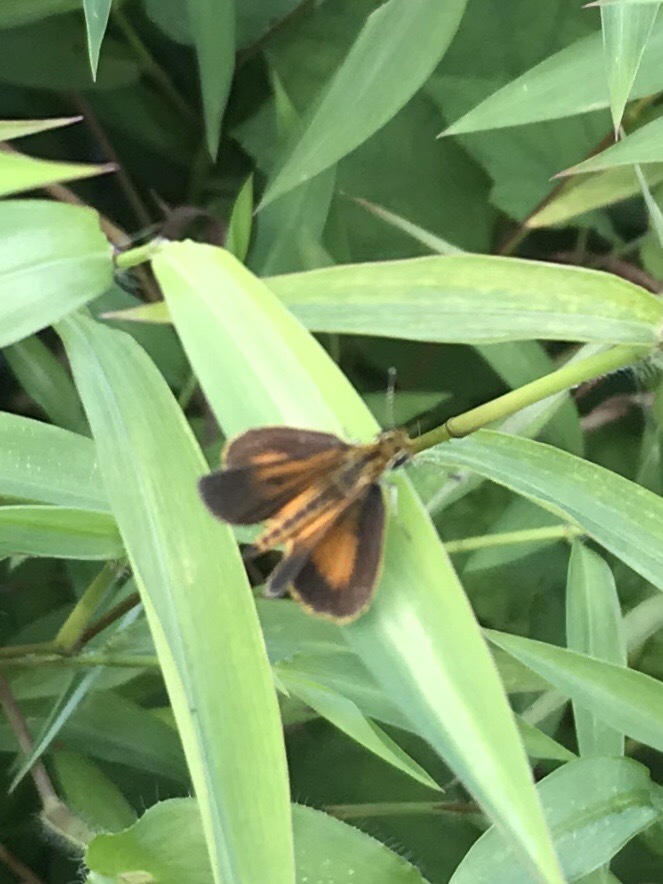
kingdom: Animalia
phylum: Arthropoda
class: Insecta
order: Lepidoptera
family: Hesperiidae
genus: Ancyloxypha
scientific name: Ancyloxypha numitor
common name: Least skipper
